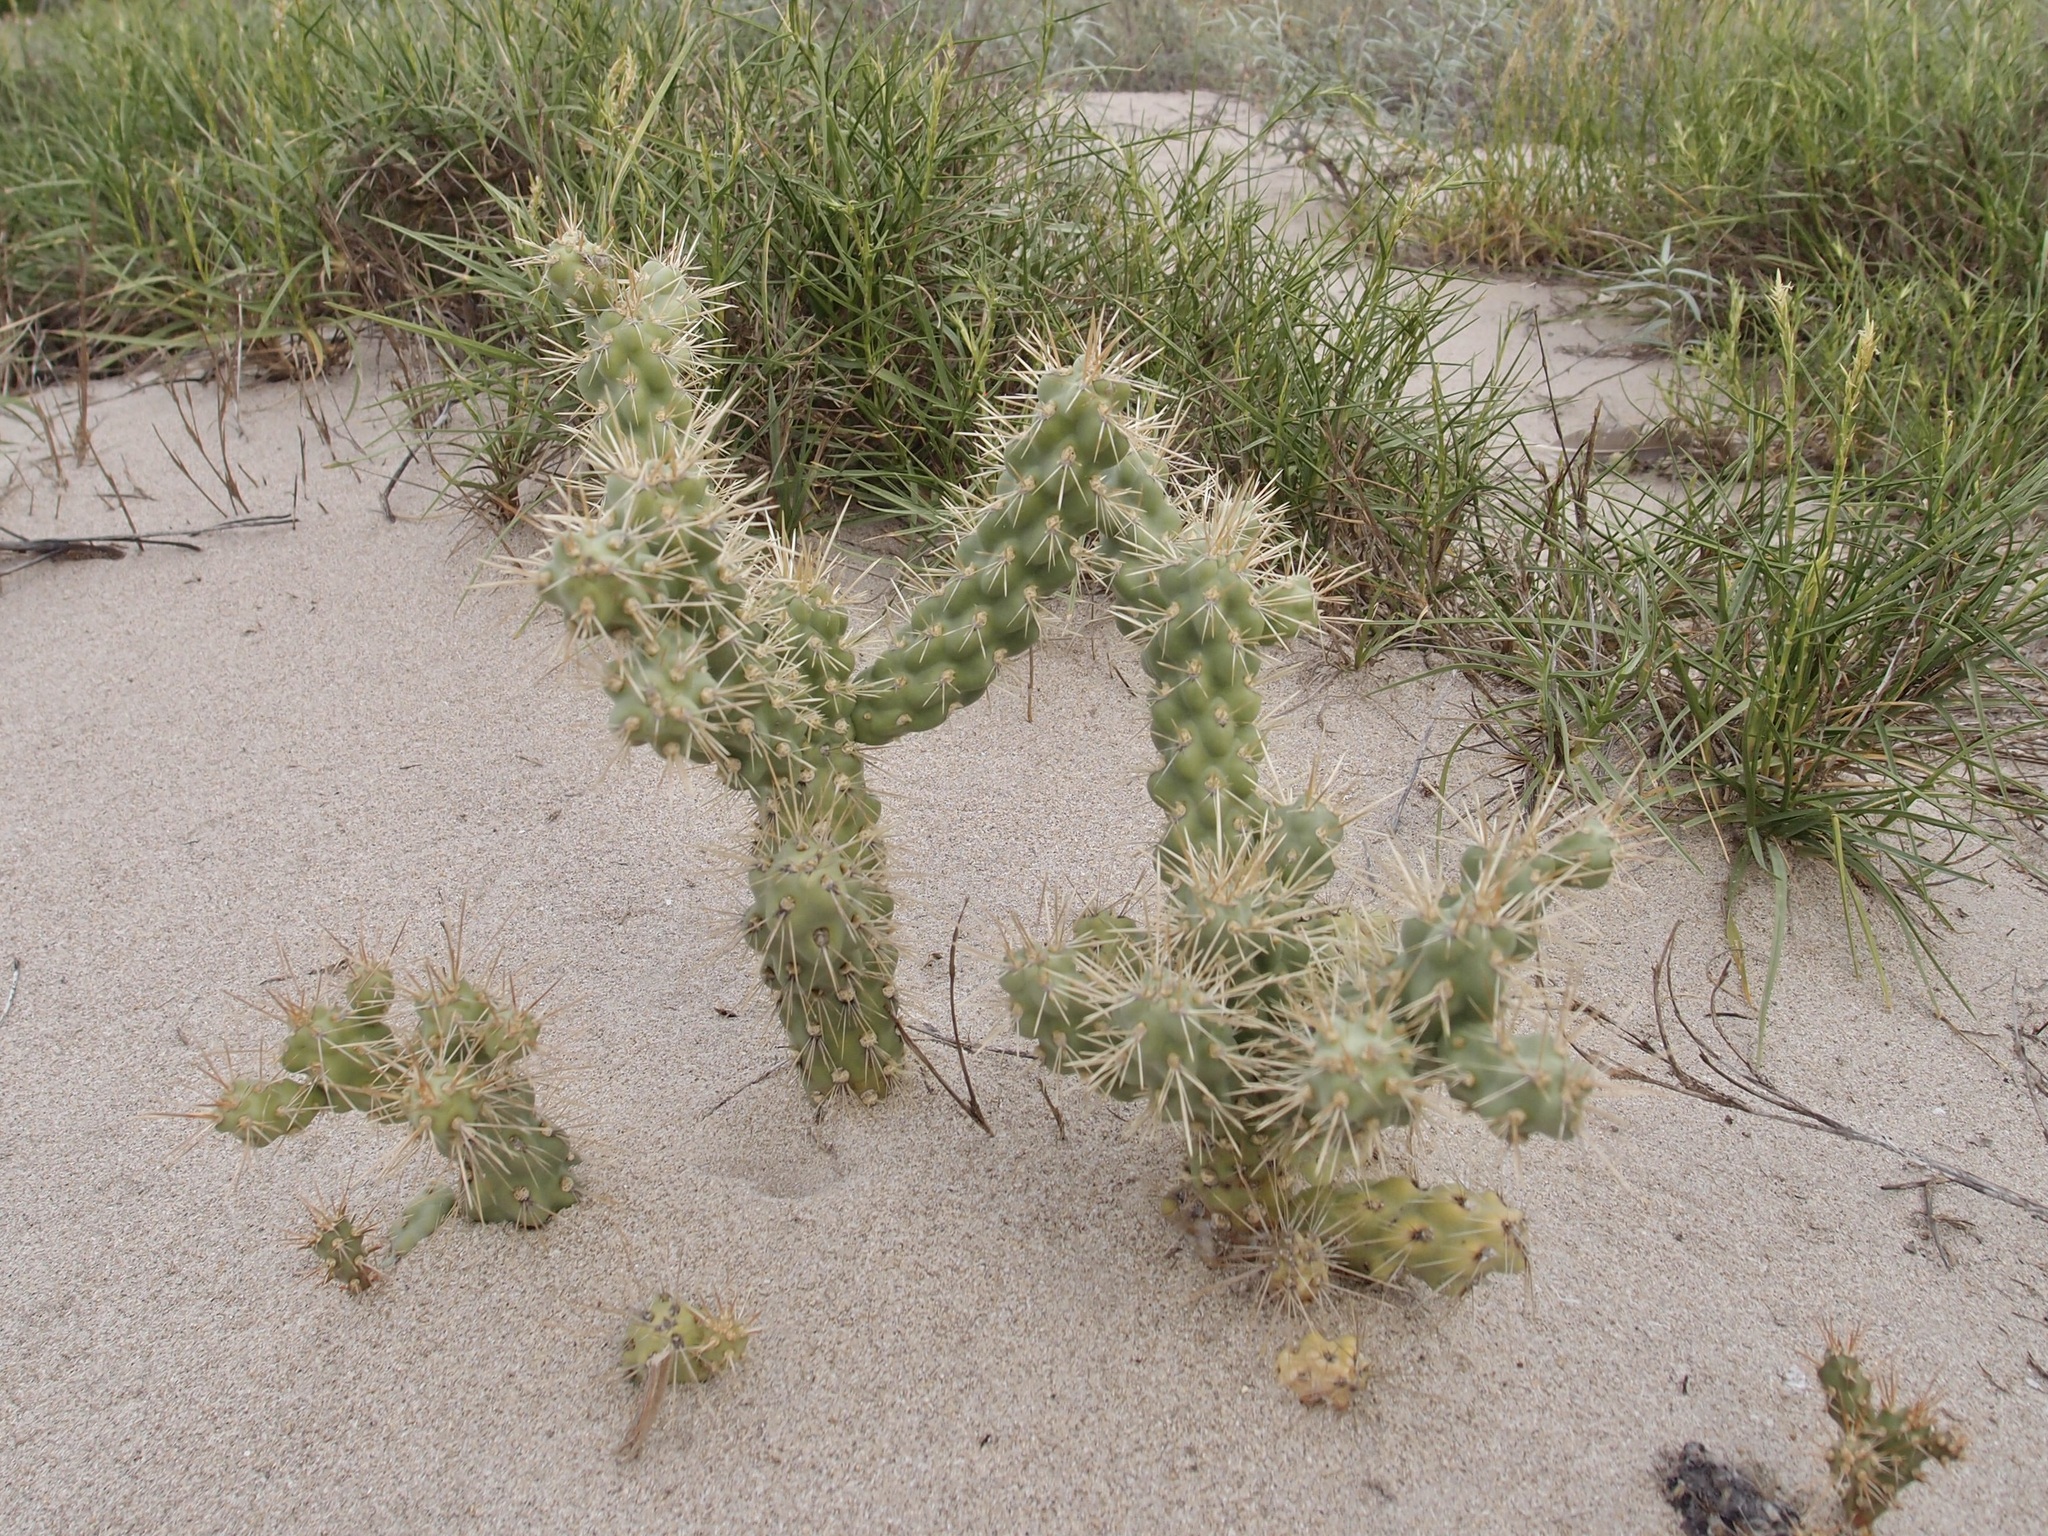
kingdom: Plantae
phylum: Tracheophyta
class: Magnoliopsida
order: Caryophyllales
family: Cactaceae
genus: Cylindropuntia
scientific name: Cylindropuntia fulgida
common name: Jumping cholla
